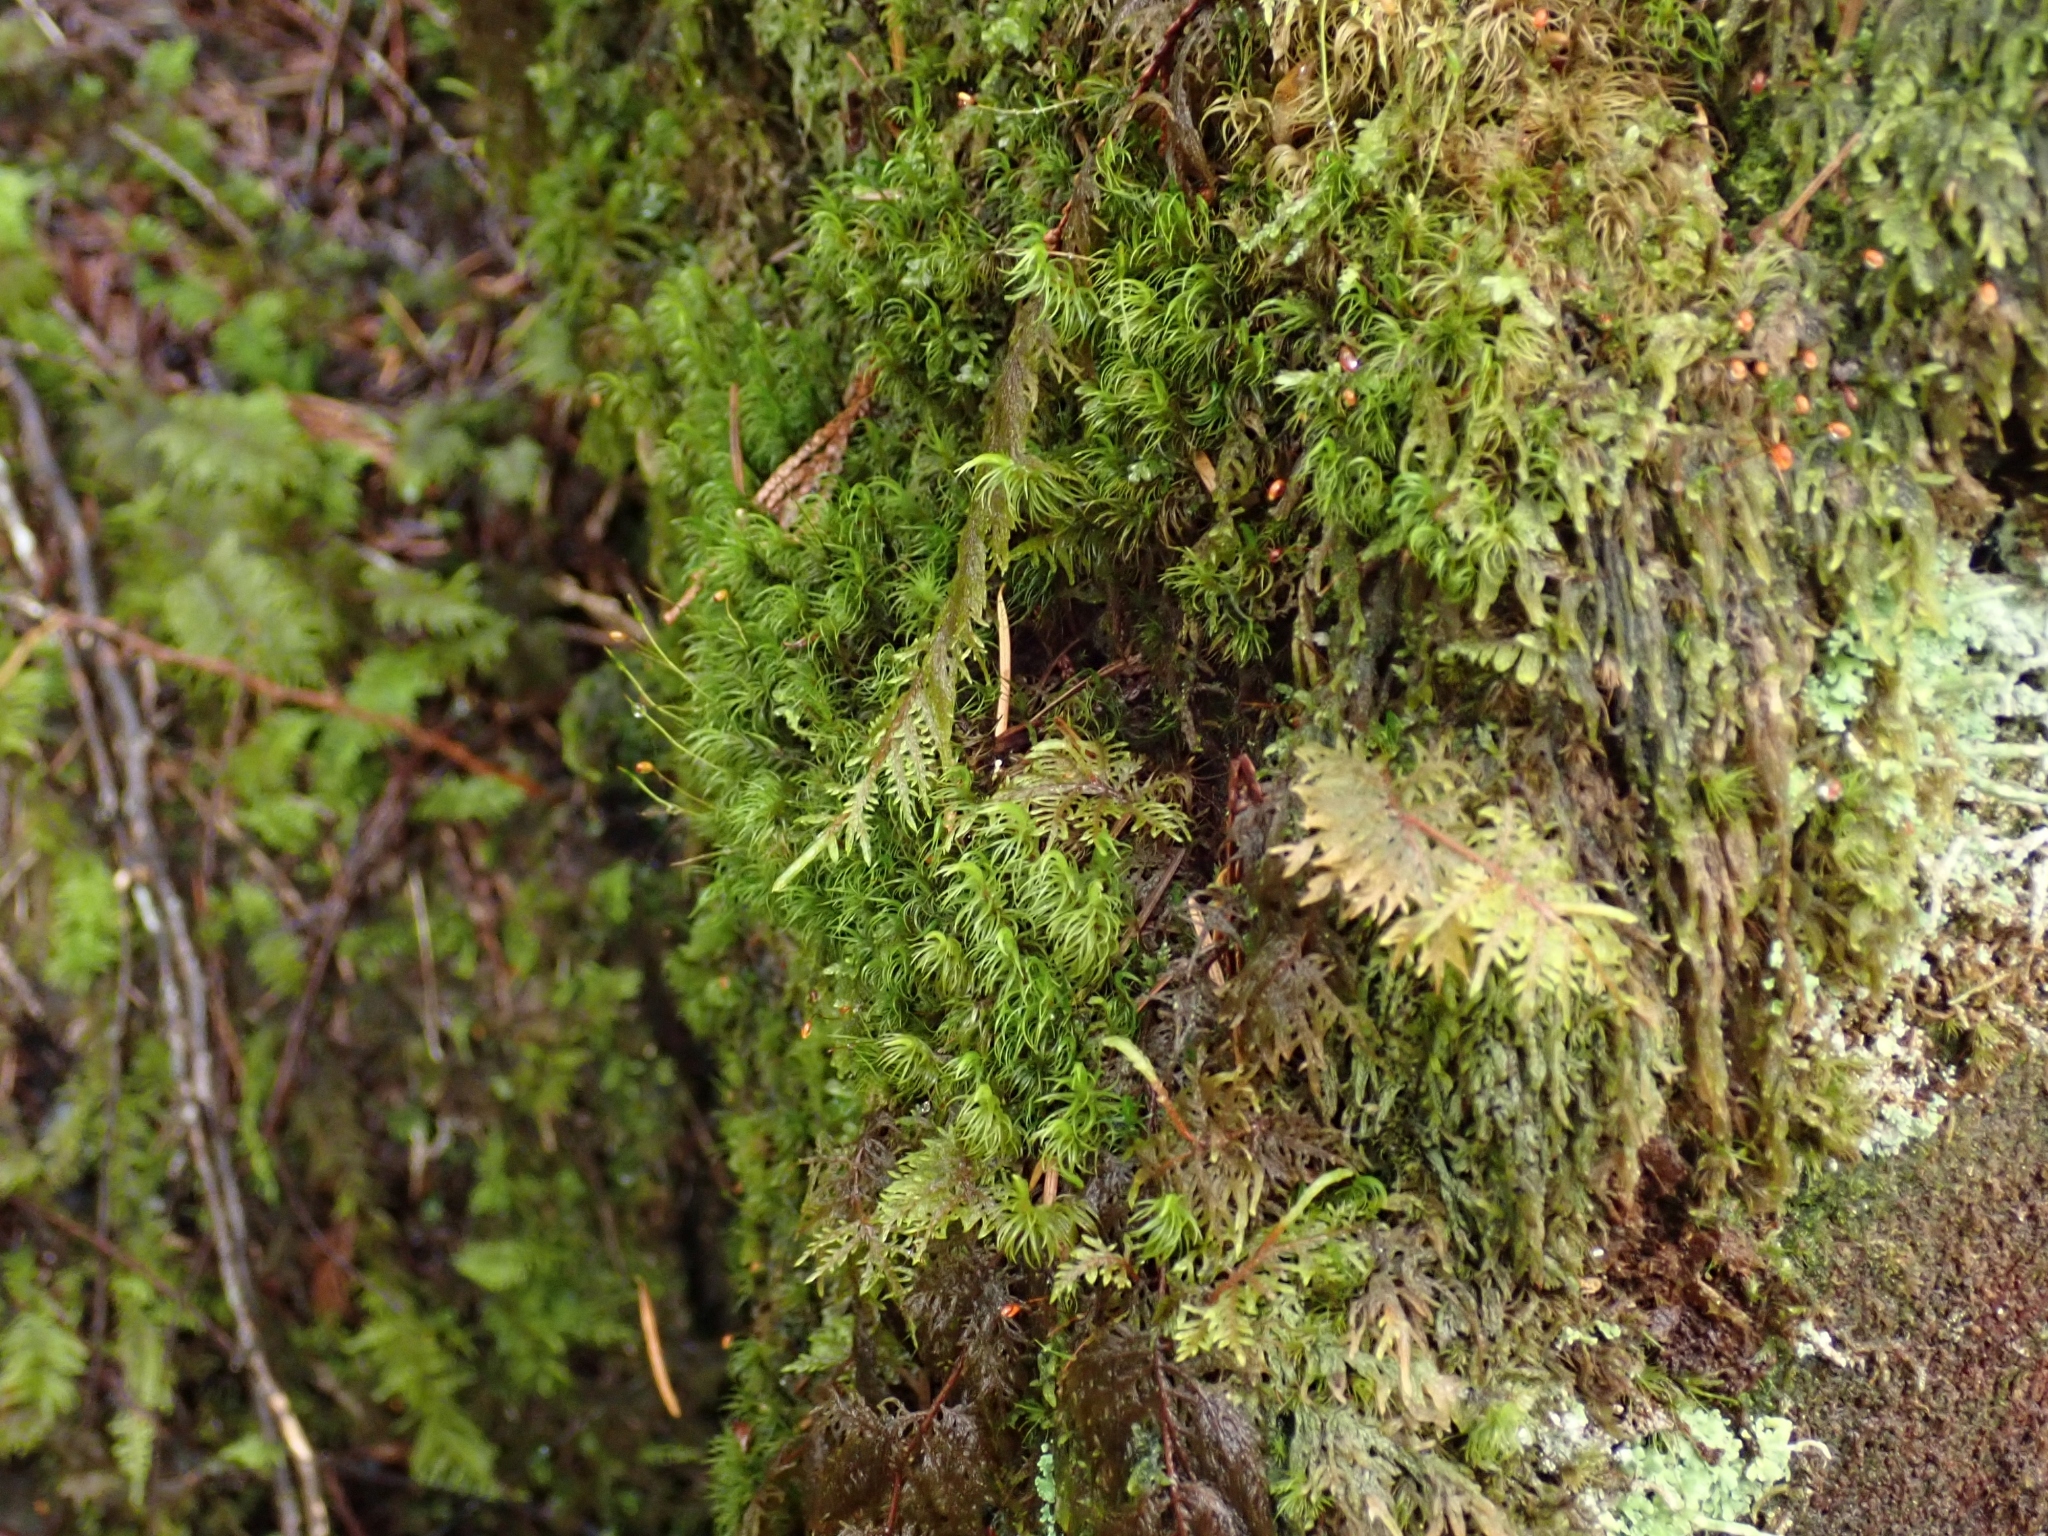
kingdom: Plantae
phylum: Bryophyta
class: Bryopsida
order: Hypnales
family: Hylocomiaceae
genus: Hylocomium
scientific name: Hylocomium splendens
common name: Stairstep moss
